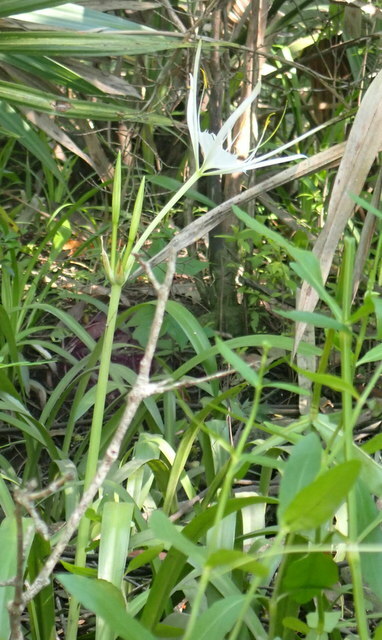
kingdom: Plantae
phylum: Tracheophyta
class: Liliopsida
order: Asparagales
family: Amaryllidaceae
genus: Hymenocallis
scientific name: Hymenocallis franklinensis
